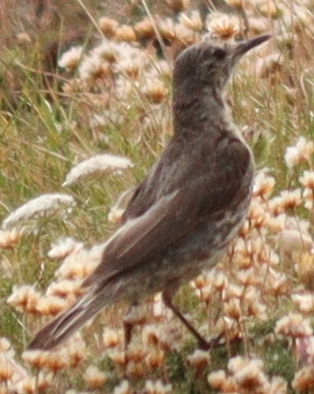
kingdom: Animalia
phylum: Chordata
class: Aves
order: Passeriformes
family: Motacillidae
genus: Anthus
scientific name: Anthus petrosus
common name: Eurasian rock pipit
